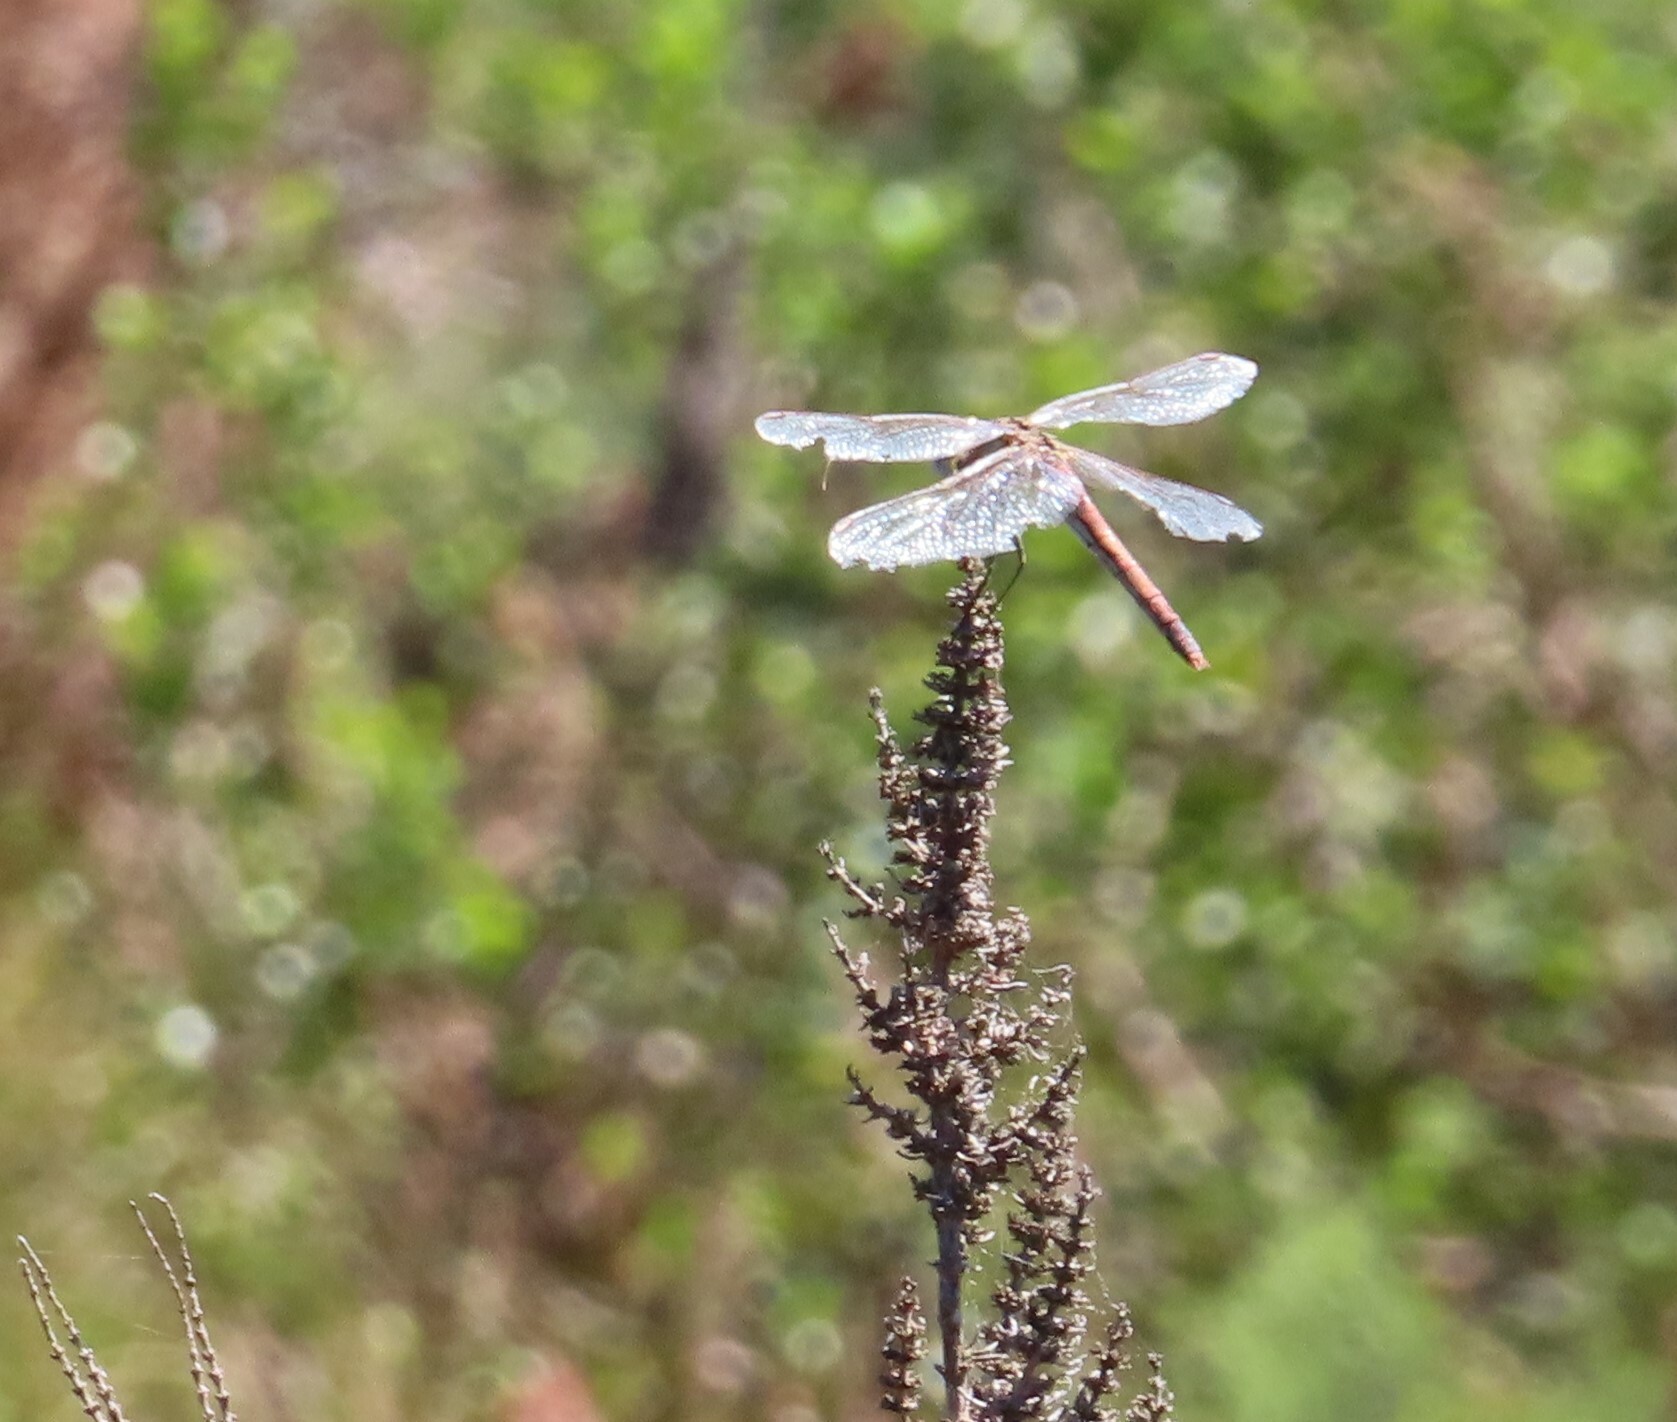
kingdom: Animalia
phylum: Arthropoda
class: Insecta
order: Odonata
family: Libellulidae
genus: Sympetrum
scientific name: Sympetrum fonscolombii
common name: Red-veined darter
